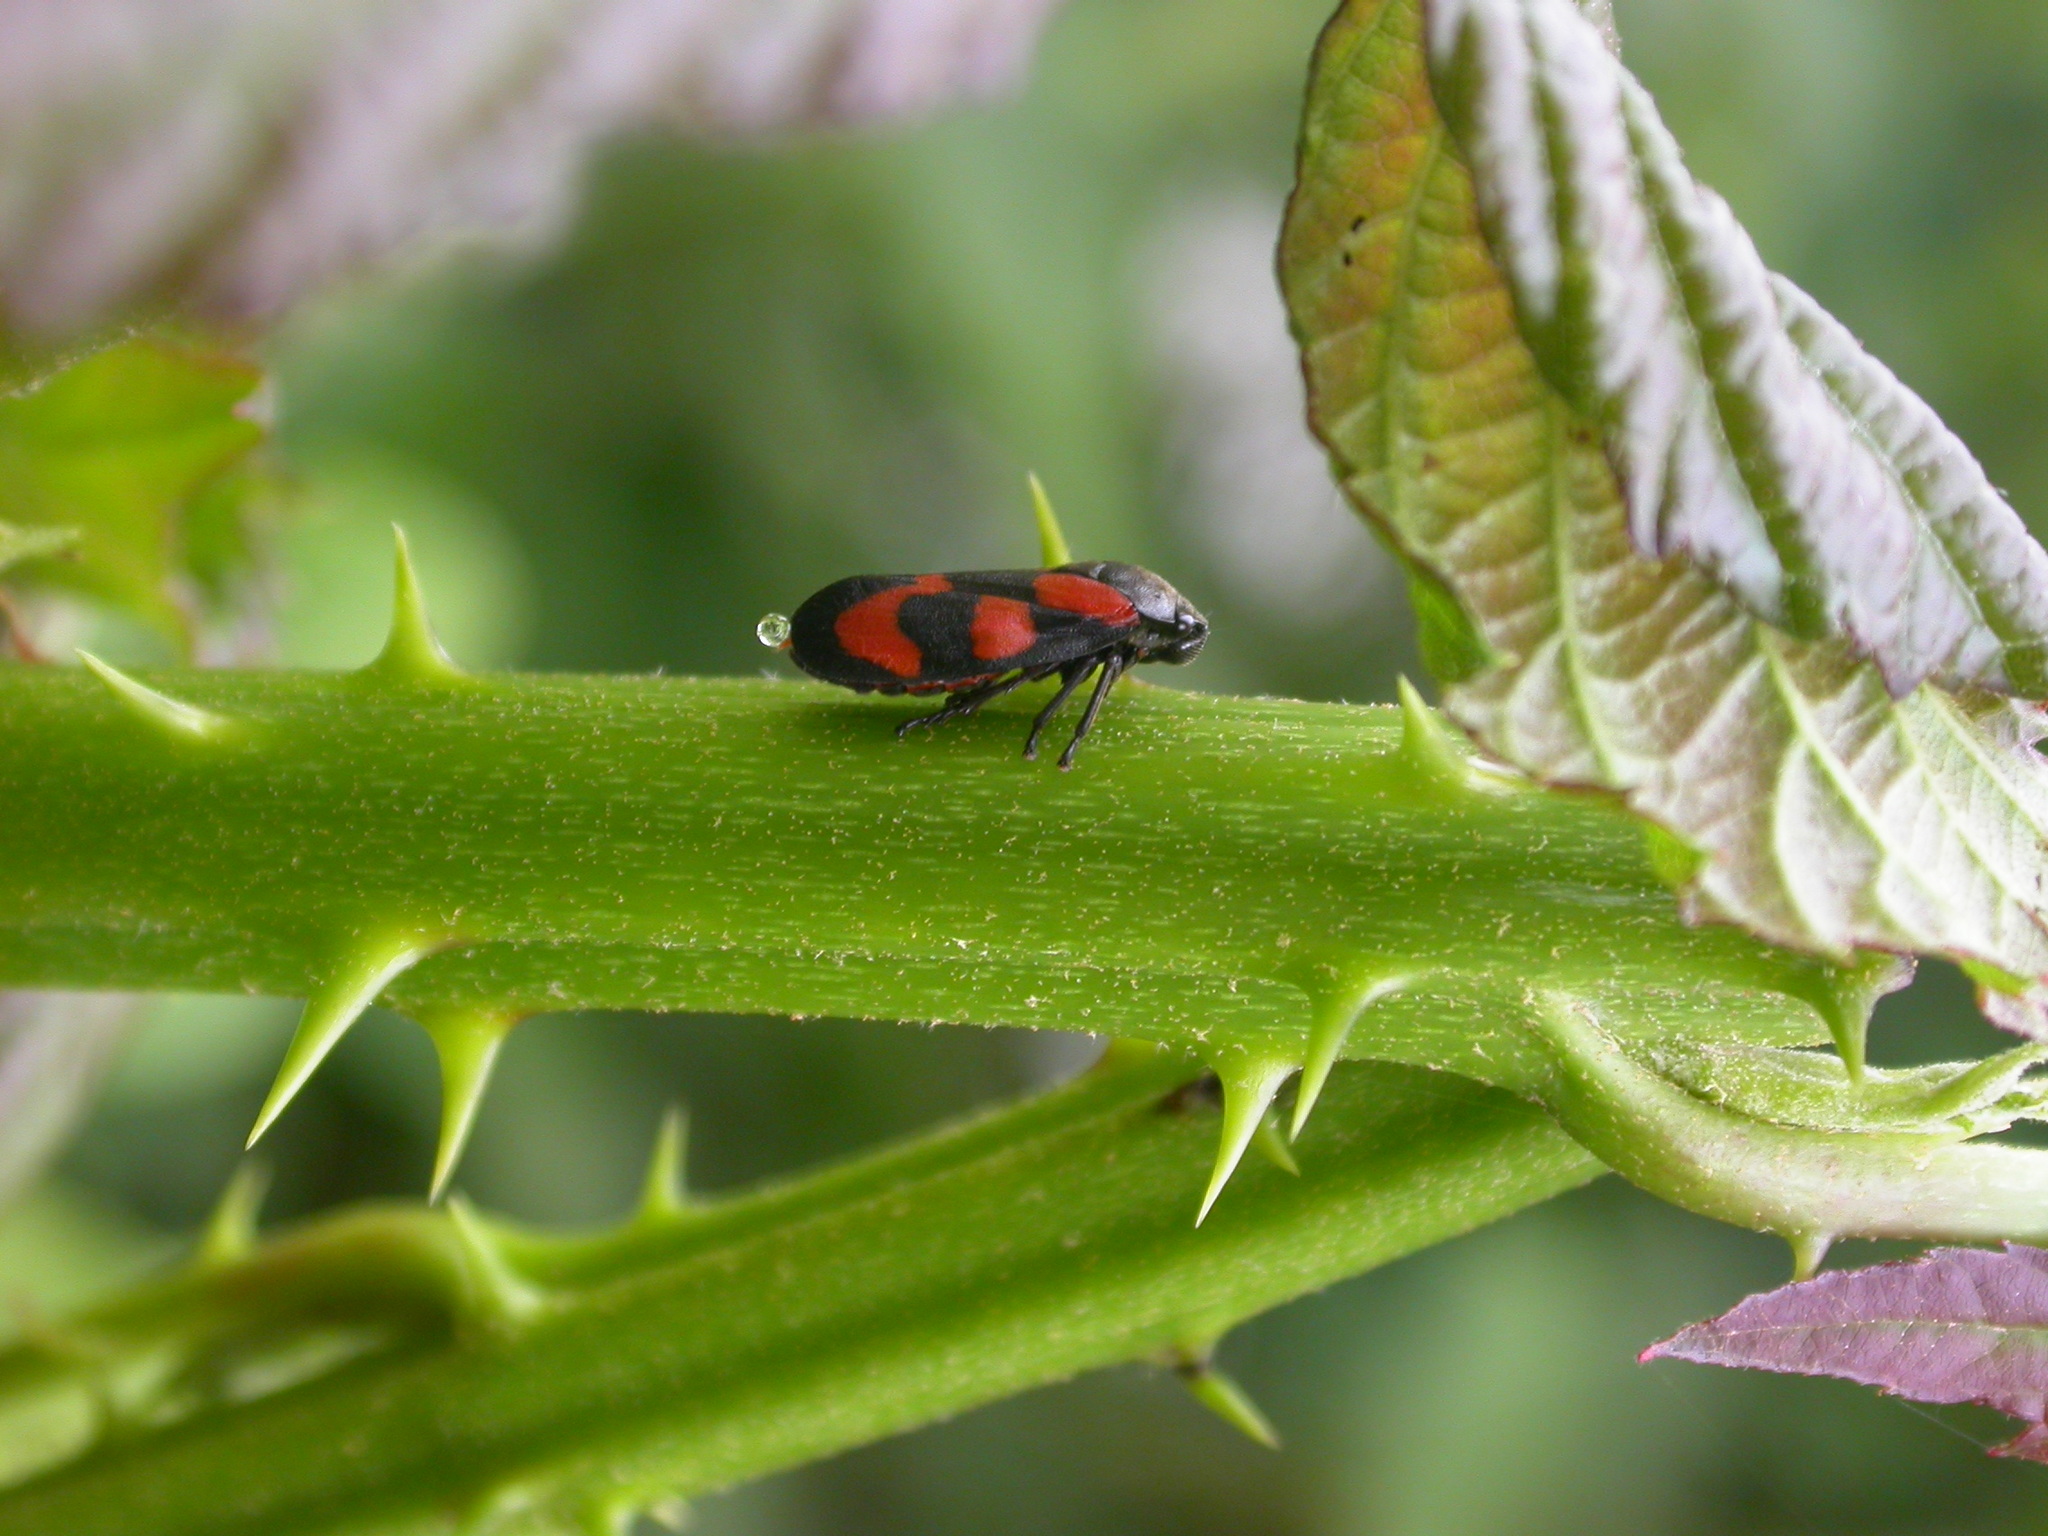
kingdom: Animalia
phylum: Arthropoda
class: Insecta
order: Hemiptera
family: Cercopidae
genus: Cercopis
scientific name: Cercopis vulnerata
